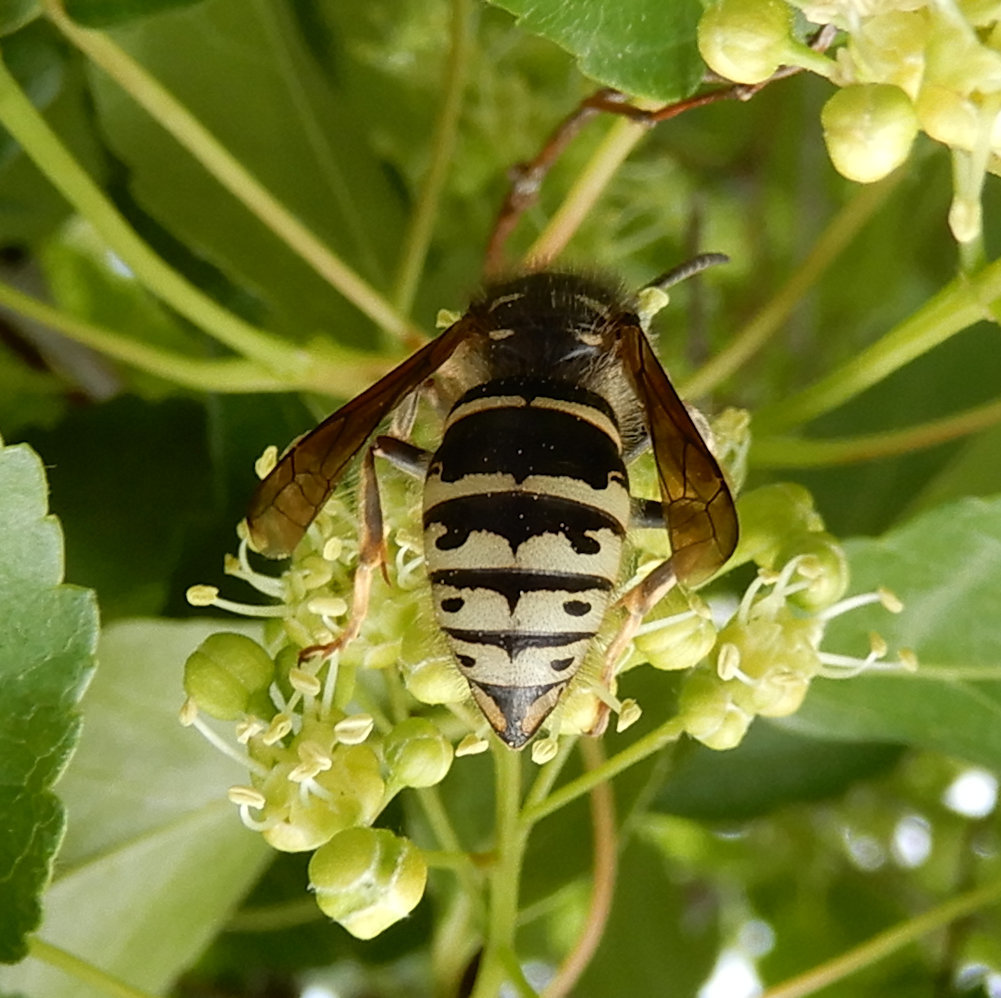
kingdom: Animalia
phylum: Arthropoda
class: Insecta
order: Hymenoptera
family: Vespidae
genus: Dolichovespula
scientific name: Dolichovespula adulterina
